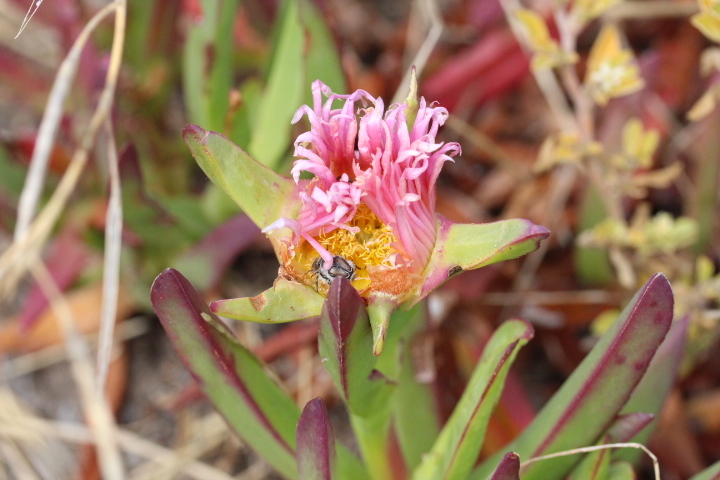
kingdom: Plantae
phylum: Tracheophyta
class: Magnoliopsida
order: Caryophyllales
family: Aizoaceae
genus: Carpobrotus
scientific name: Carpobrotus acinaciformis
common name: Sally-my-handsome
